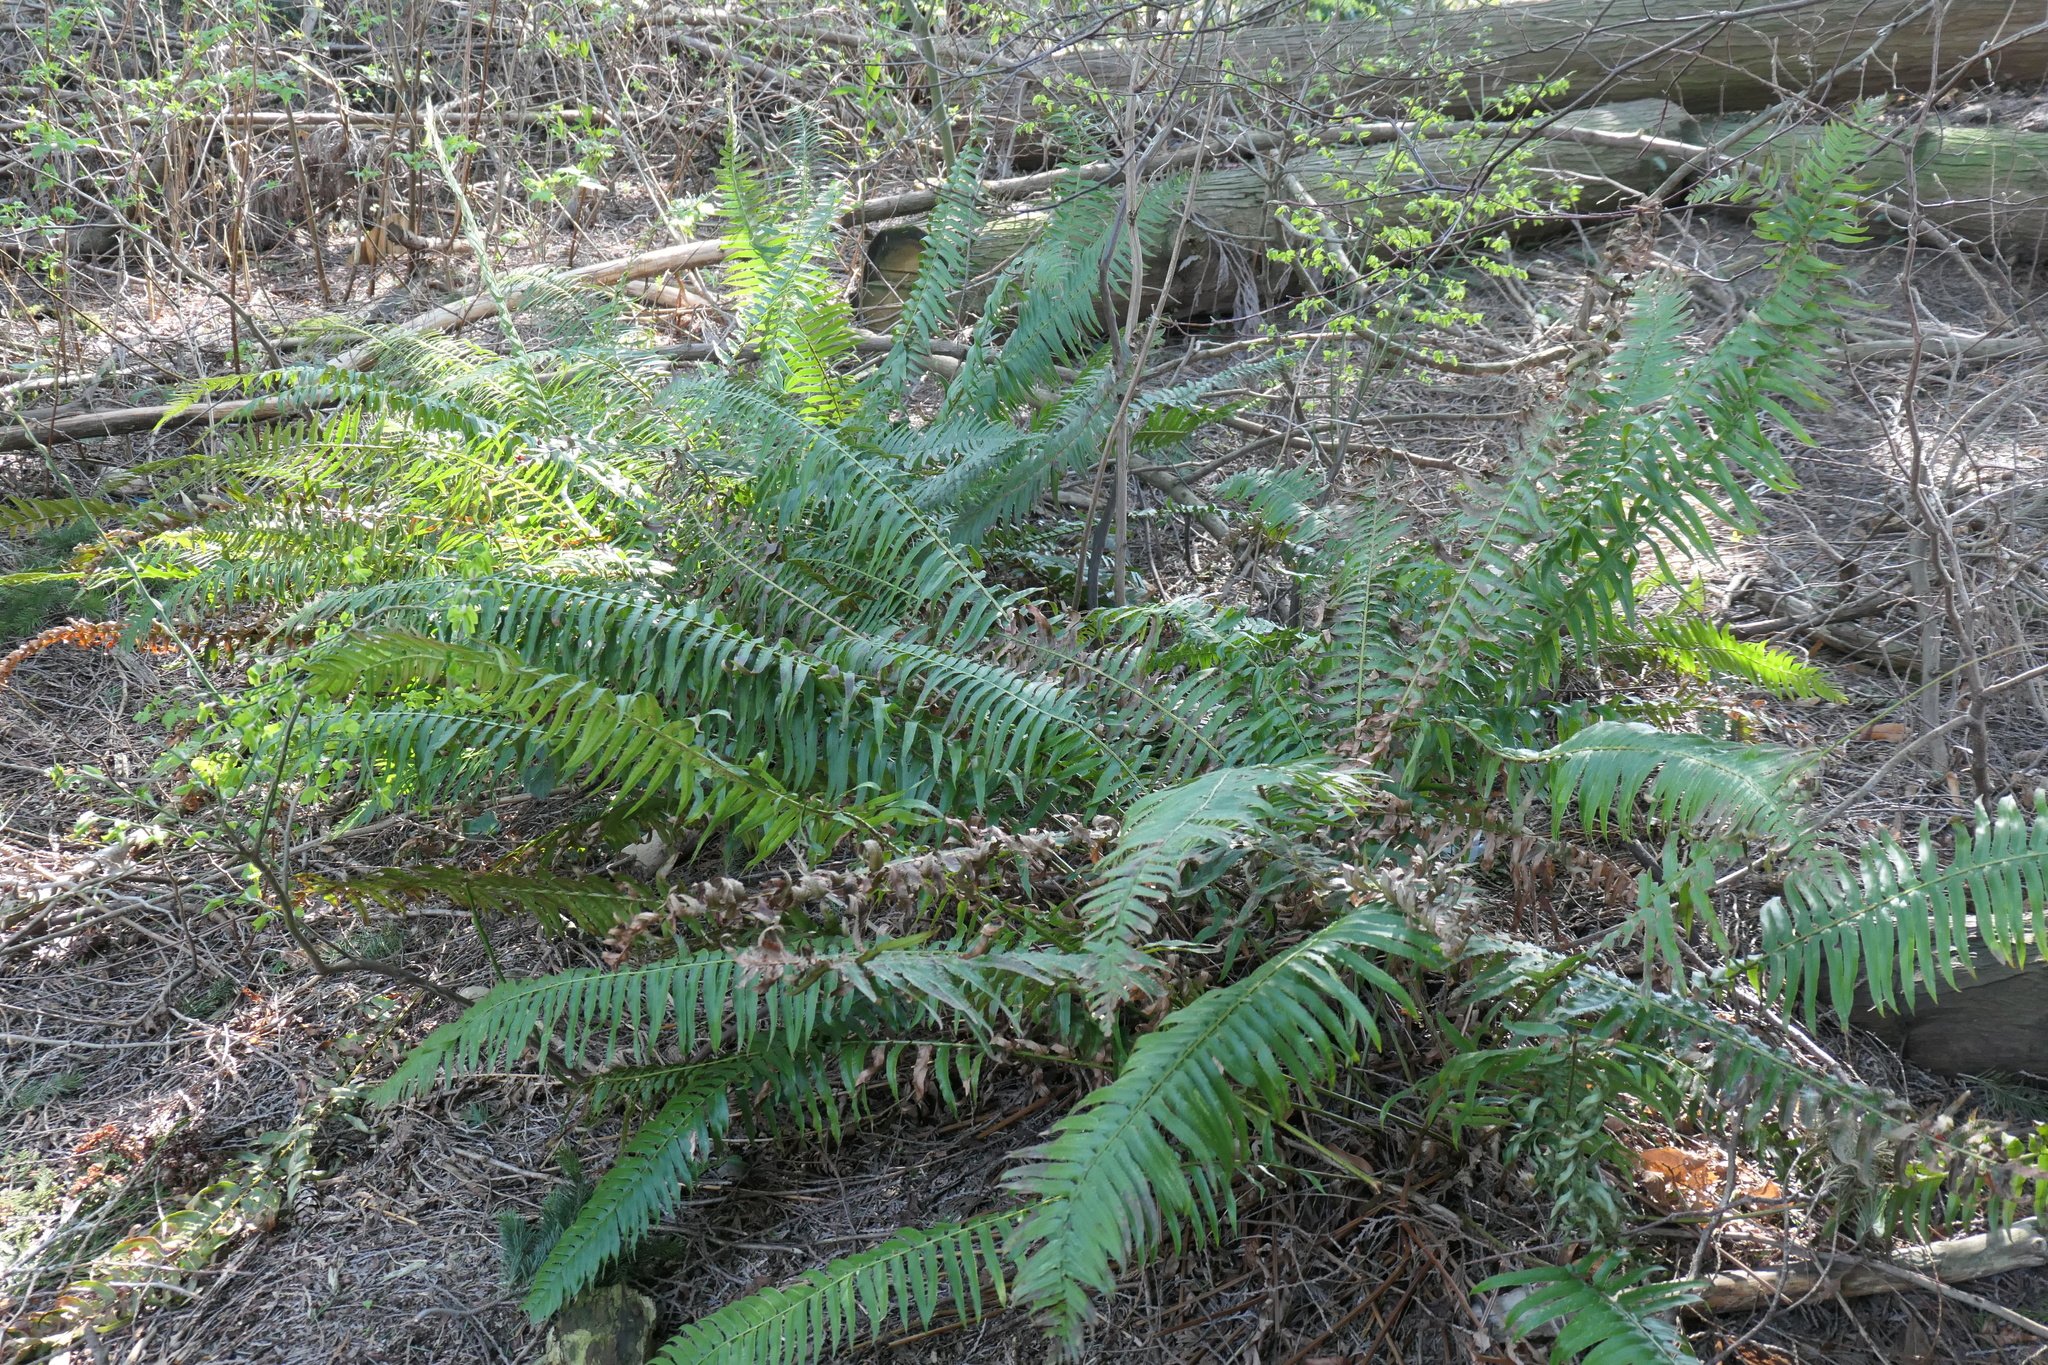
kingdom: Plantae
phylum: Tracheophyta
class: Polypodiopsida
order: Polypodiales
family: Dryopteridaceae
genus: Polystichum
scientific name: Polystichum munitum
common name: Western sword-fern
